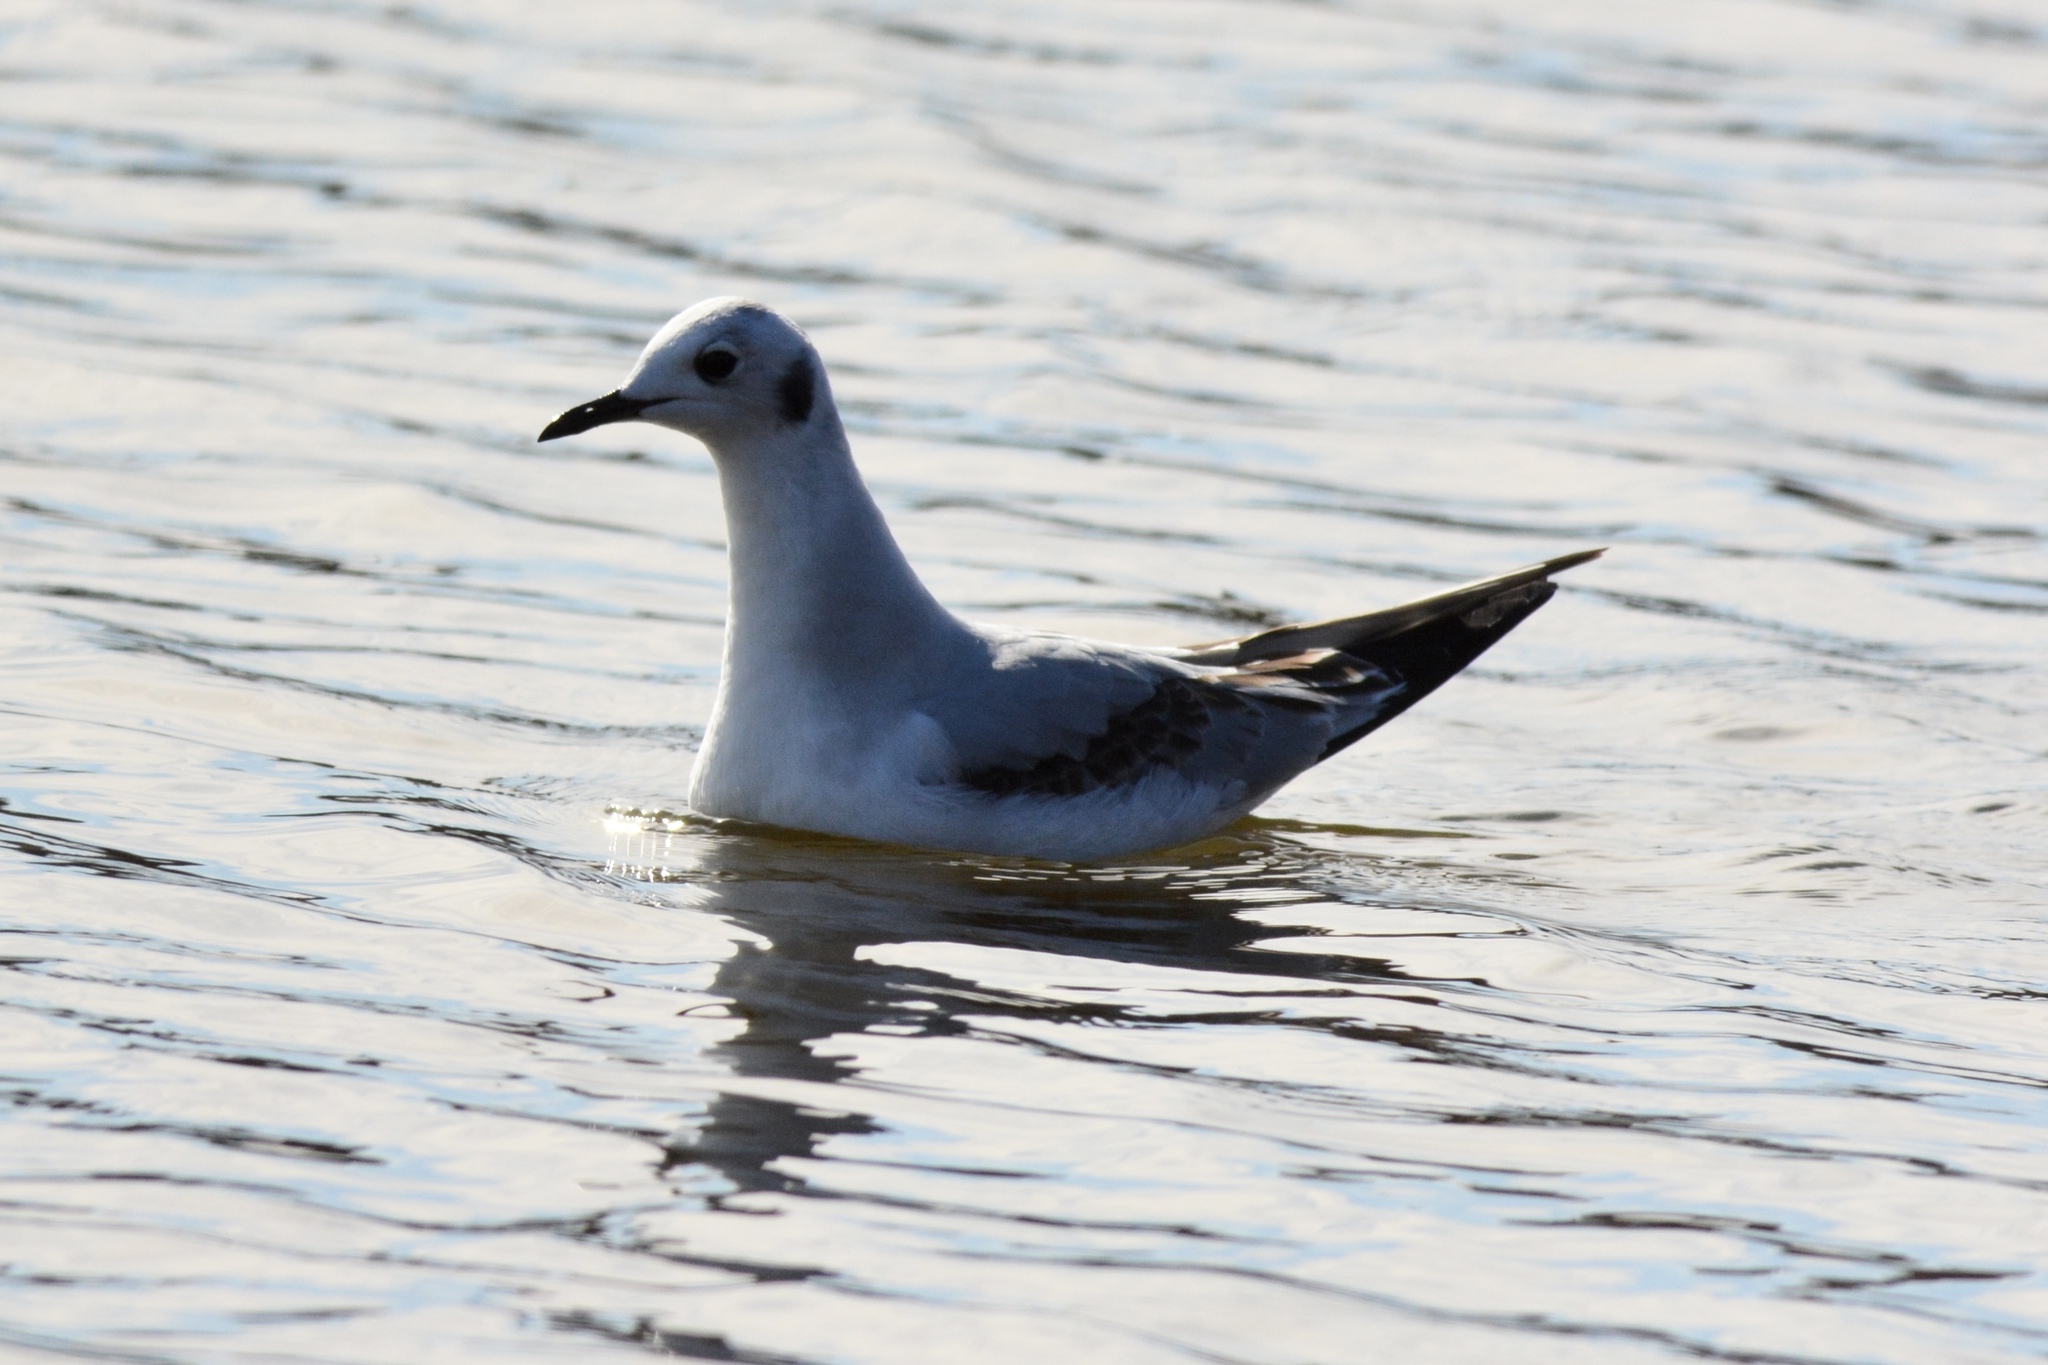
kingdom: Animalia
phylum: Chordata
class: Aves
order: Charadriiformes
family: Laridae
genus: Chroicocephalus
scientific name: Chroicocephalus philadelphia
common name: Bonaparte's gull
